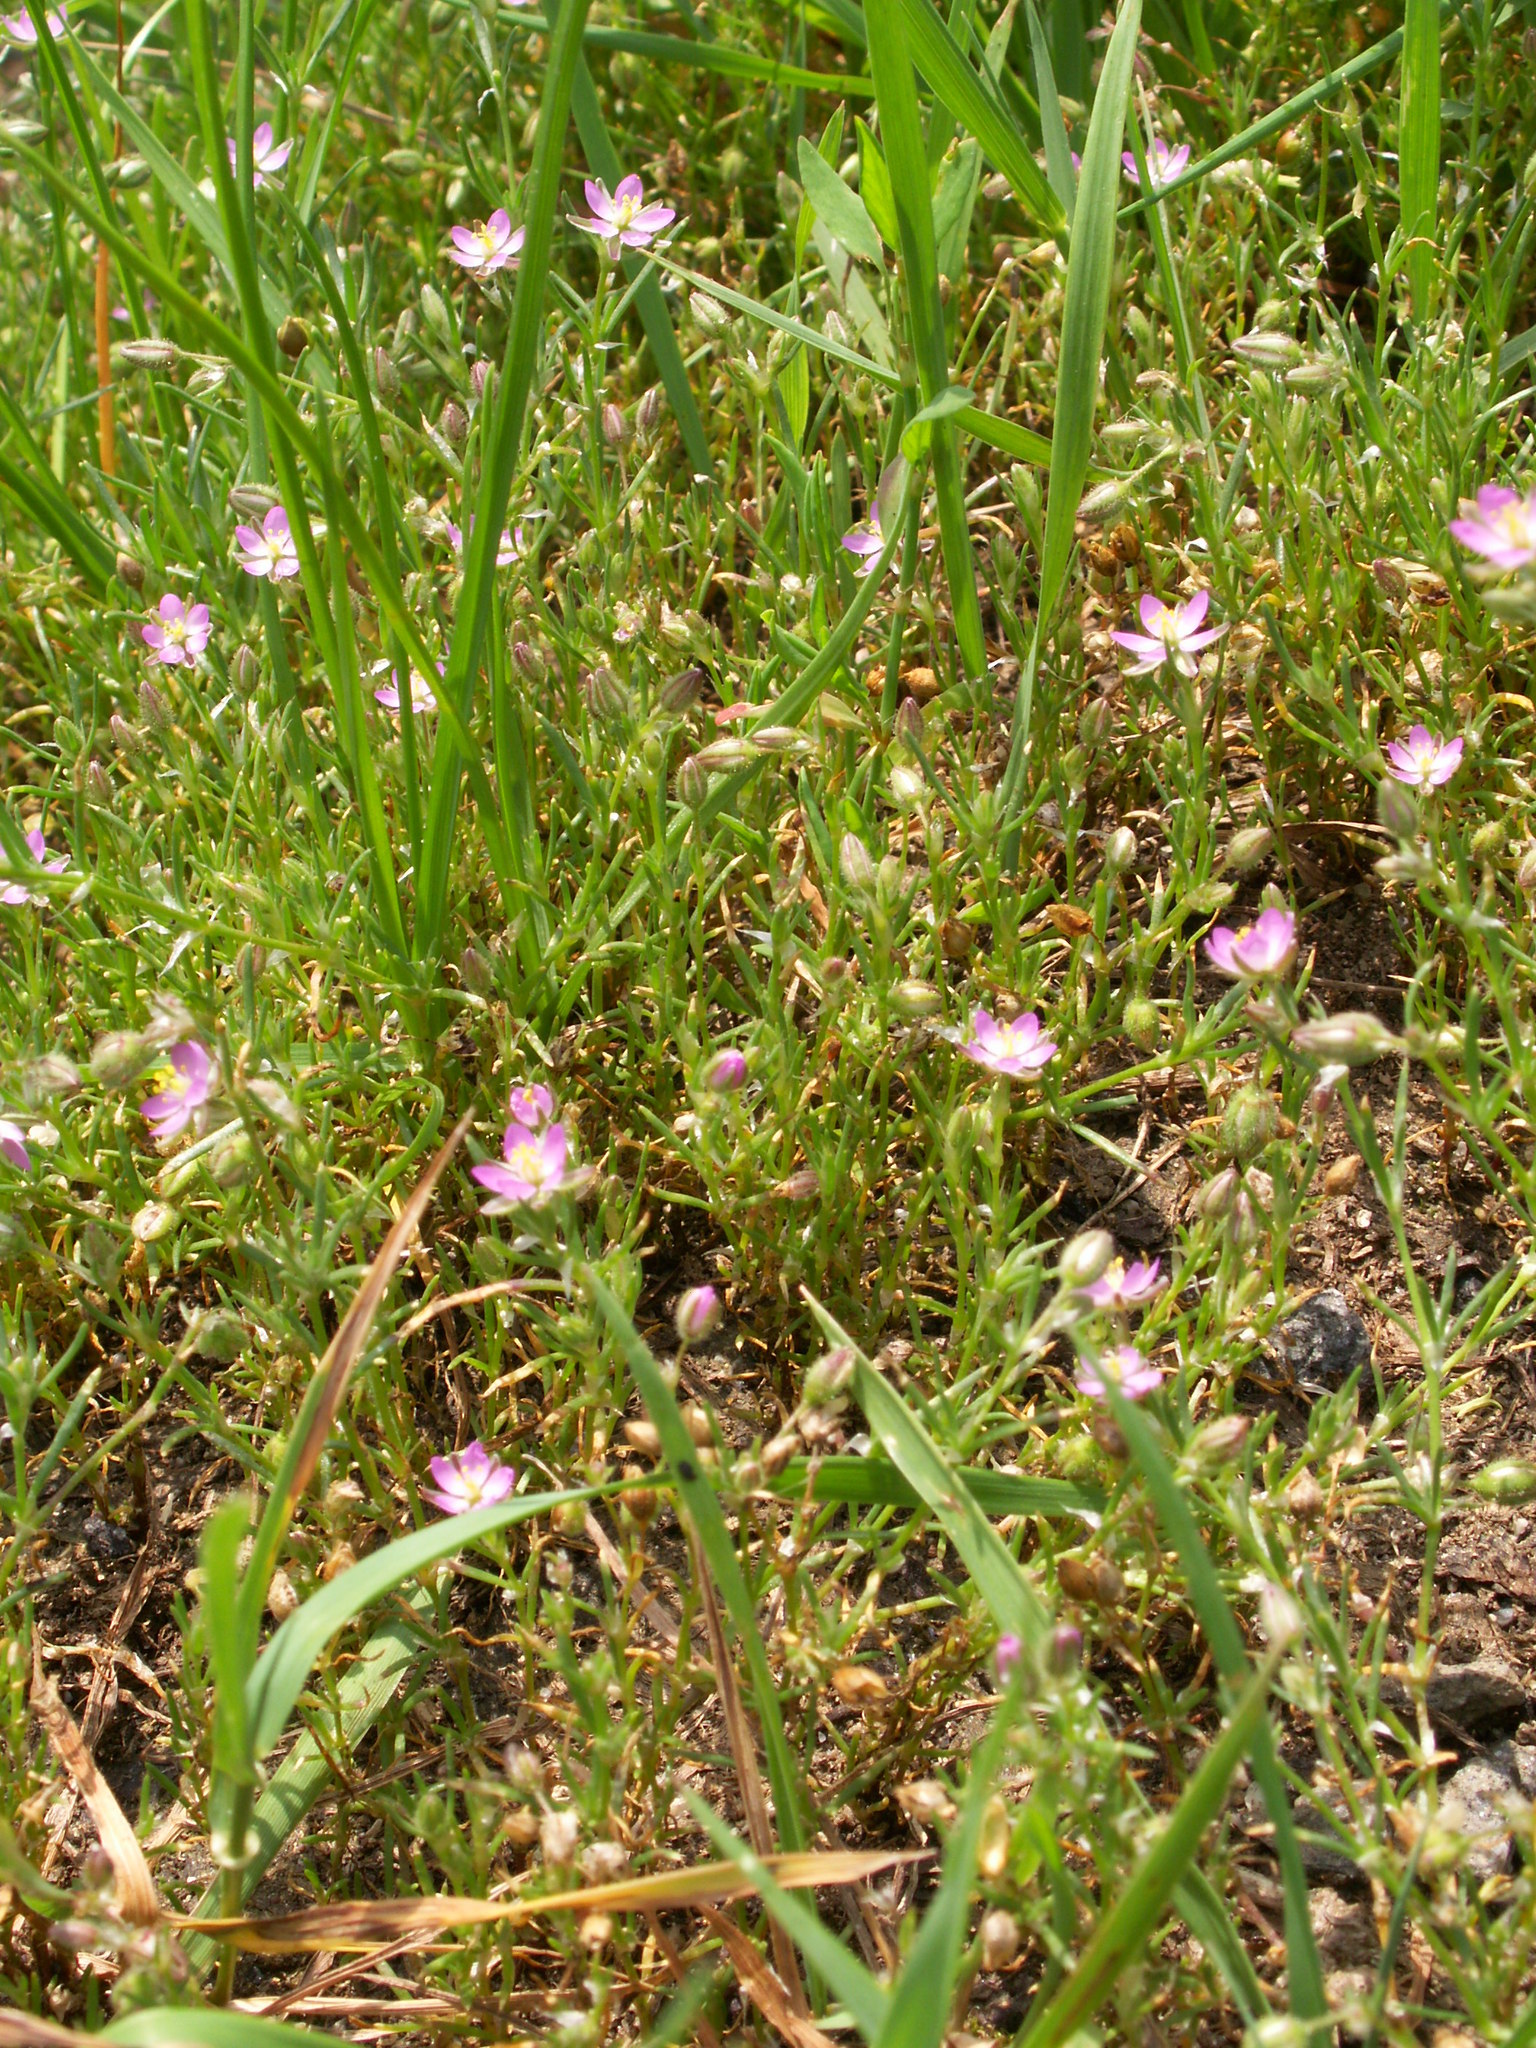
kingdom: Plantae
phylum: Tracheophyta
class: Magnoliopsida
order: Caryophyllales
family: Caryophyllaceae
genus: Spergularia
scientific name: Spergularia rubra
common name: Red sand-spurrey
